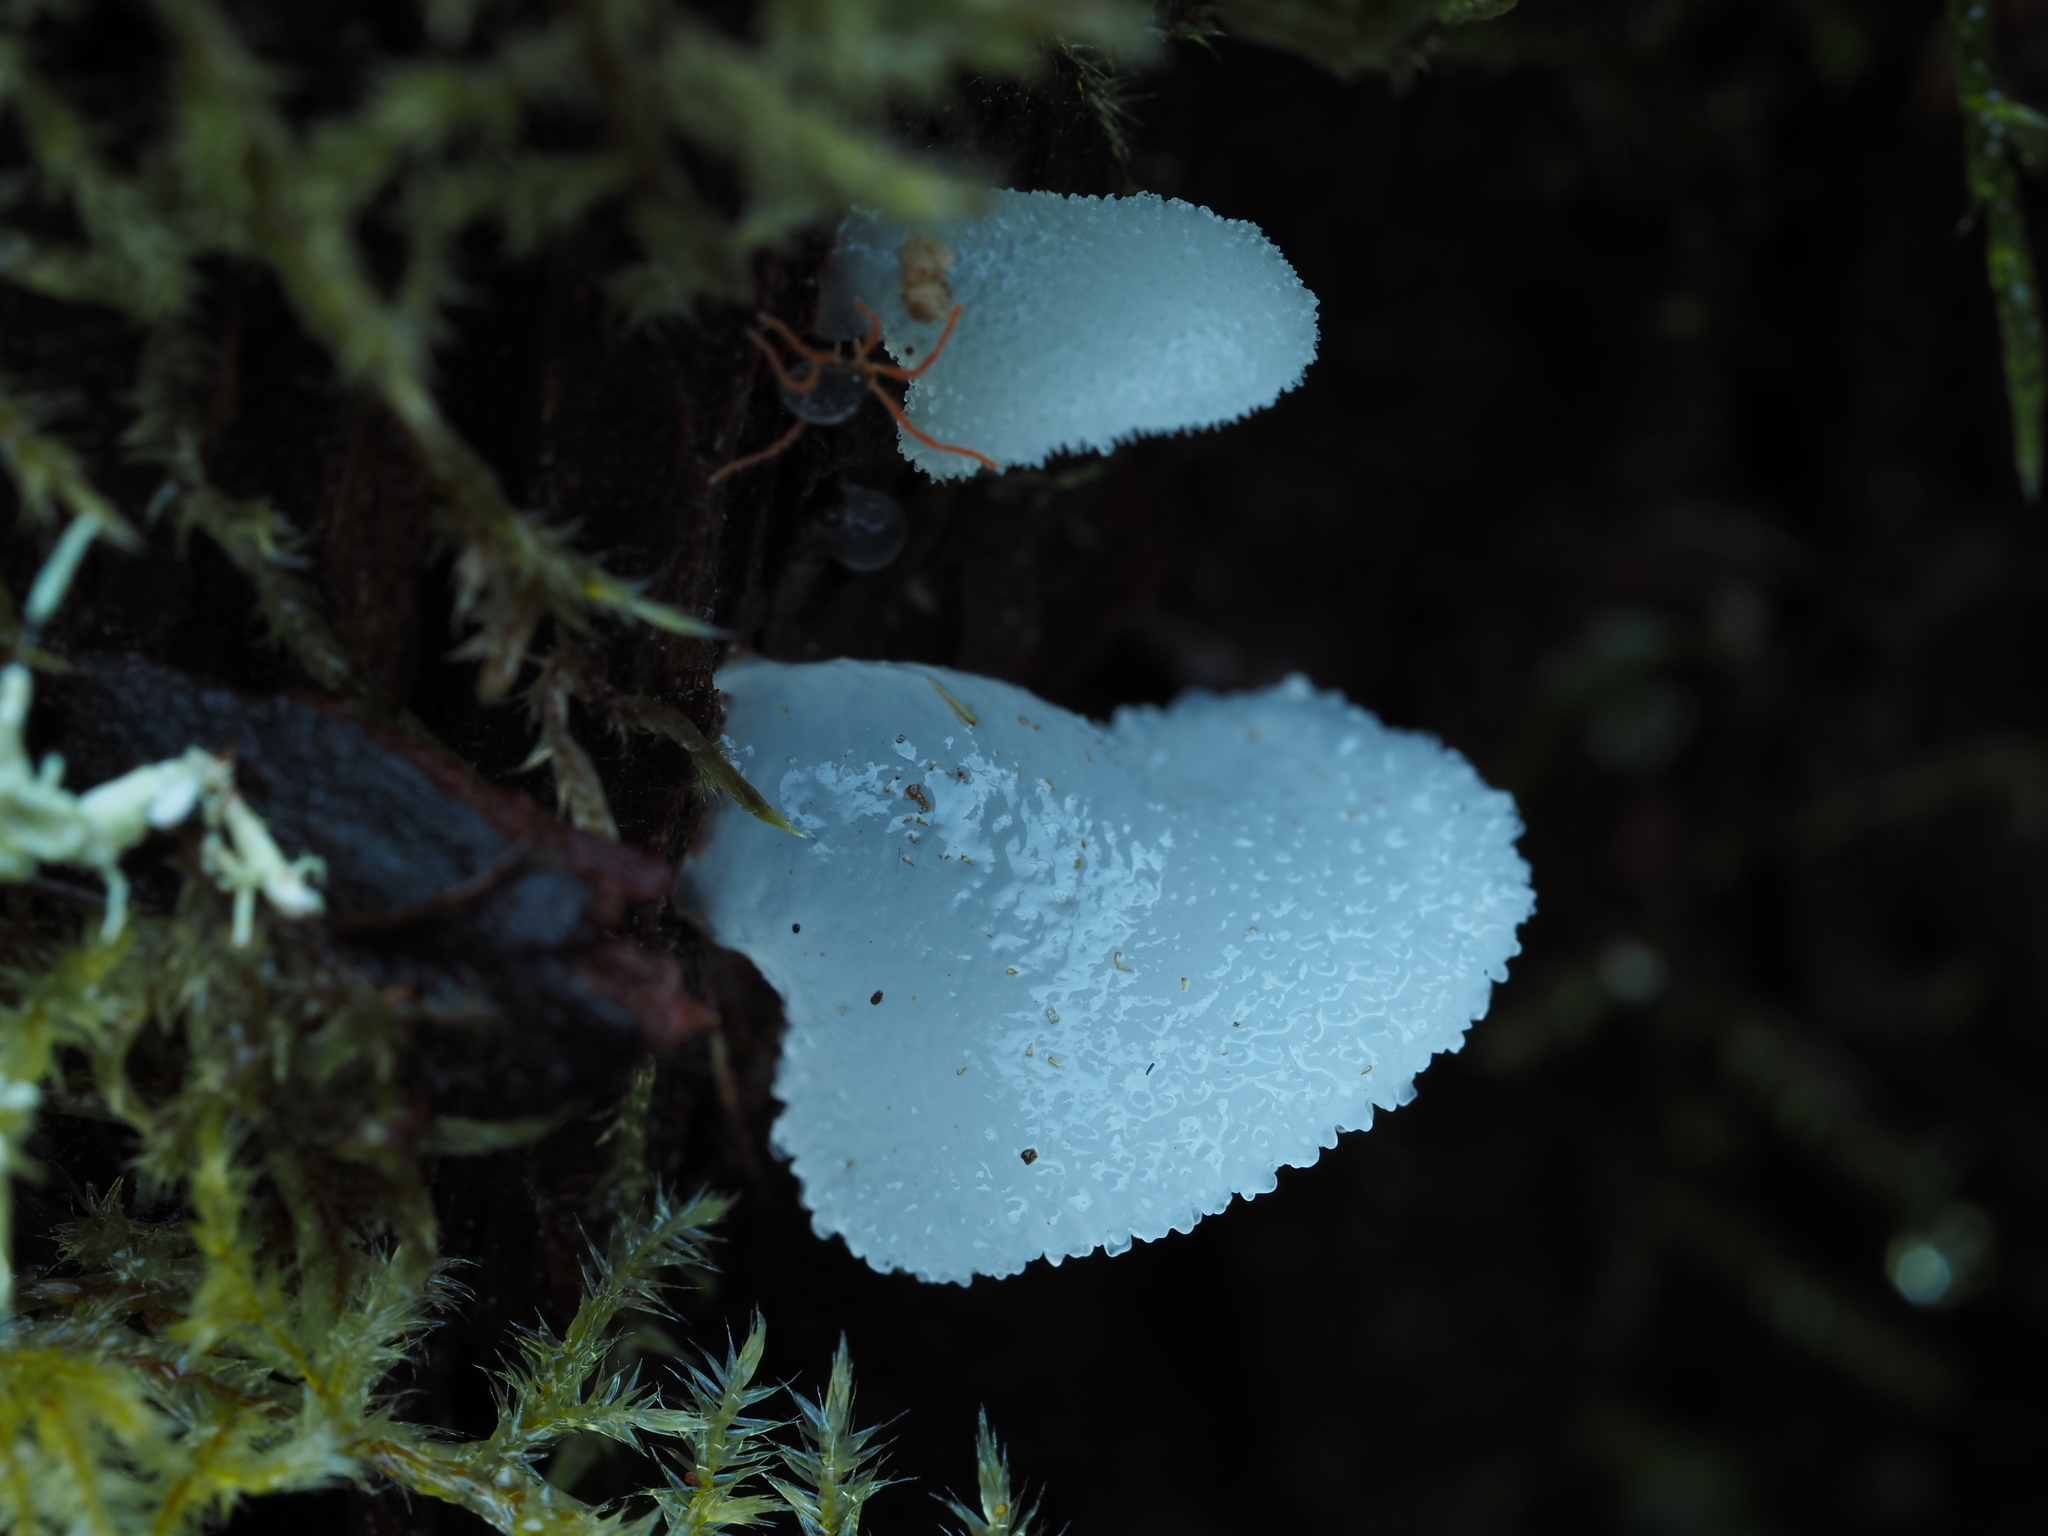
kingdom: Fungi
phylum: Basidiomycota
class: Agaricomycetes
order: Auriculariales
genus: Pseudohydnum
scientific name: Pseudohydnum orbiculare
